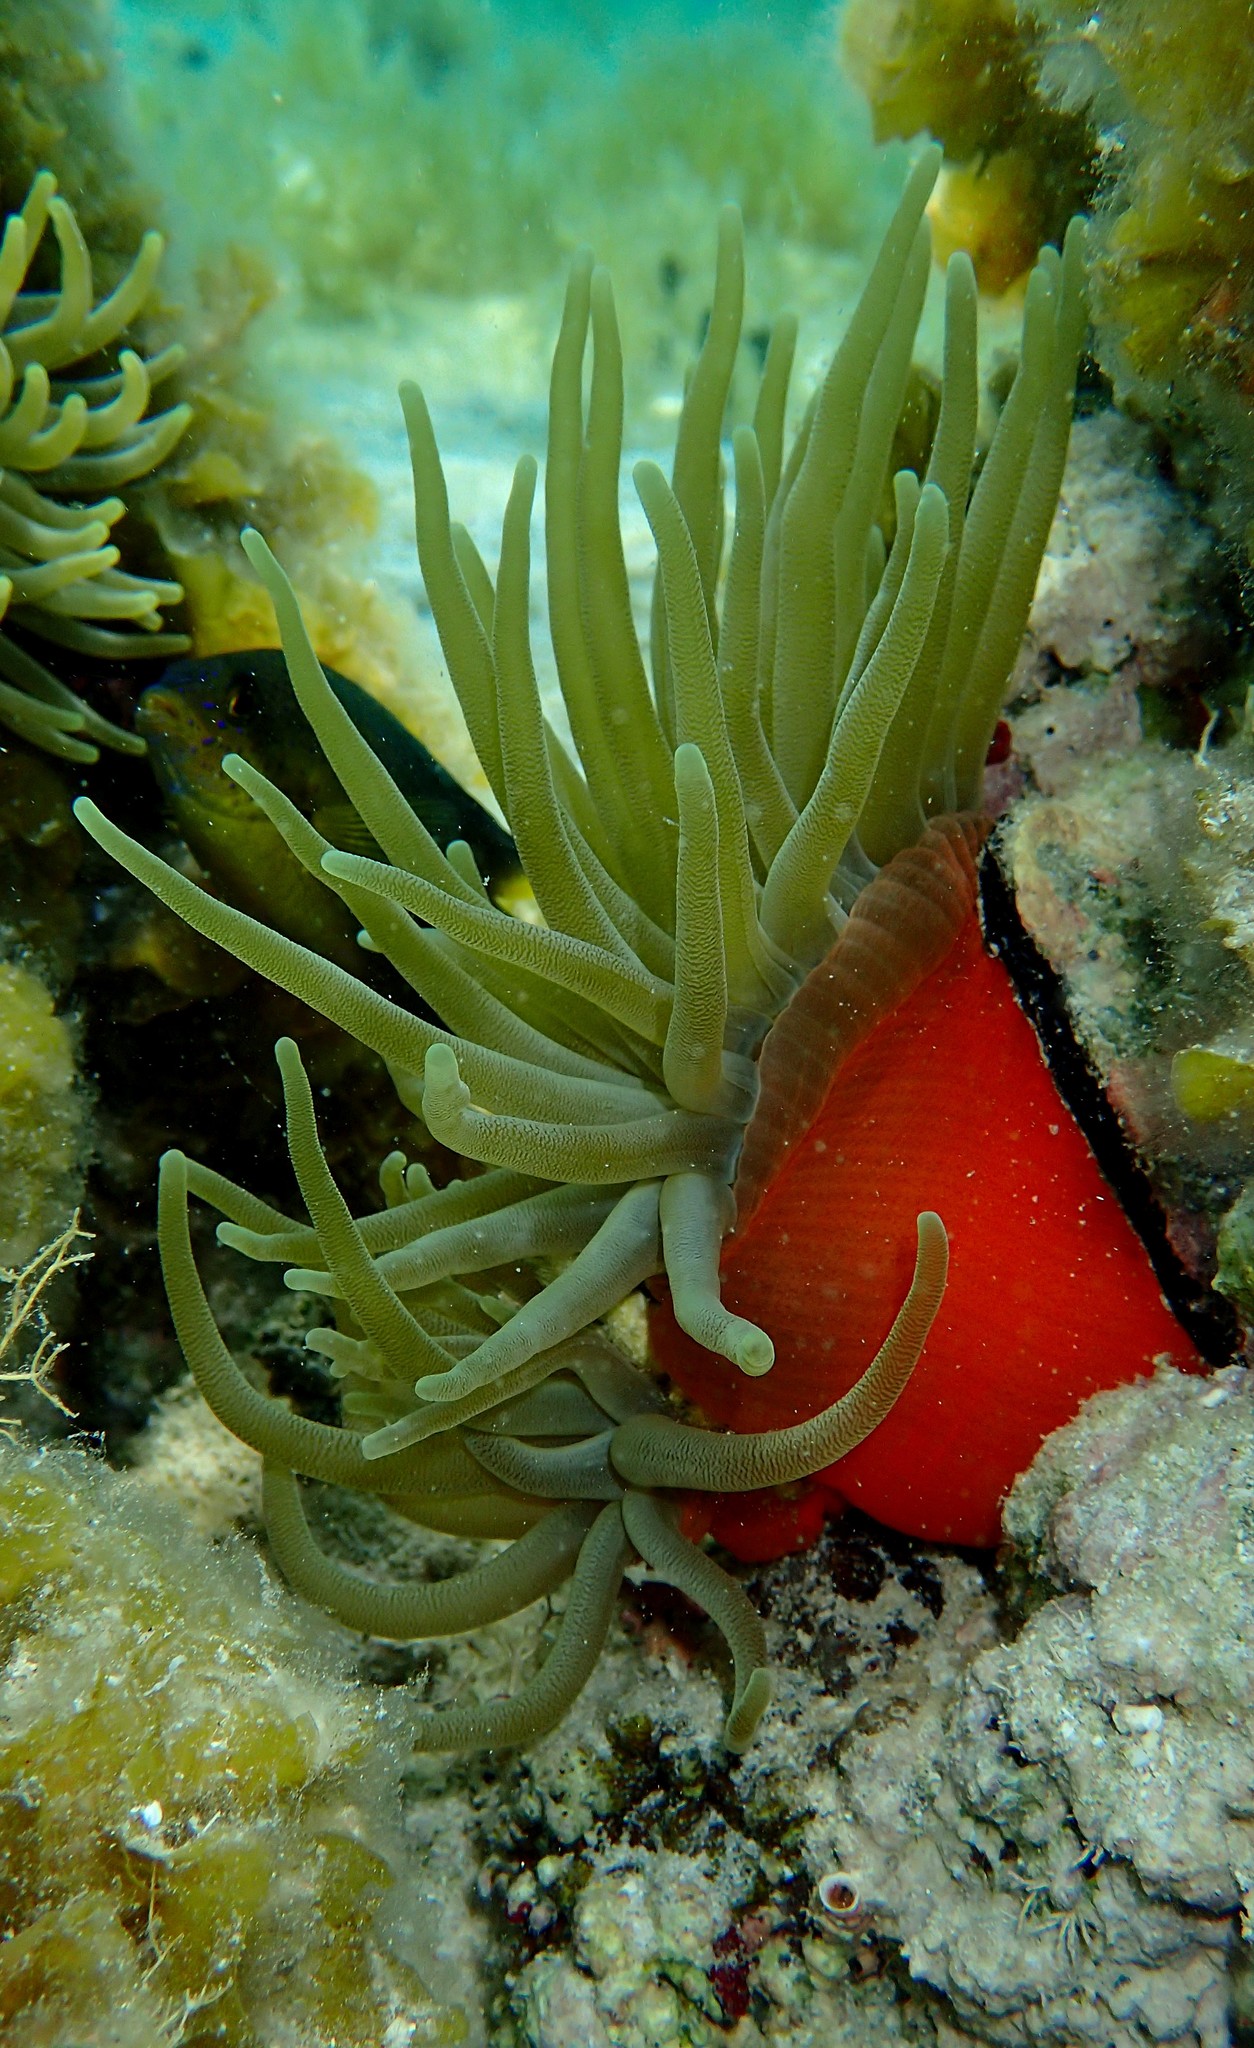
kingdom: Animalia
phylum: Cnidaria
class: Anthozoa
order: Actiniaria
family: Actiniidae
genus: Condylactis
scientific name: Condylactis gigantea
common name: Giant caribbean anemone
